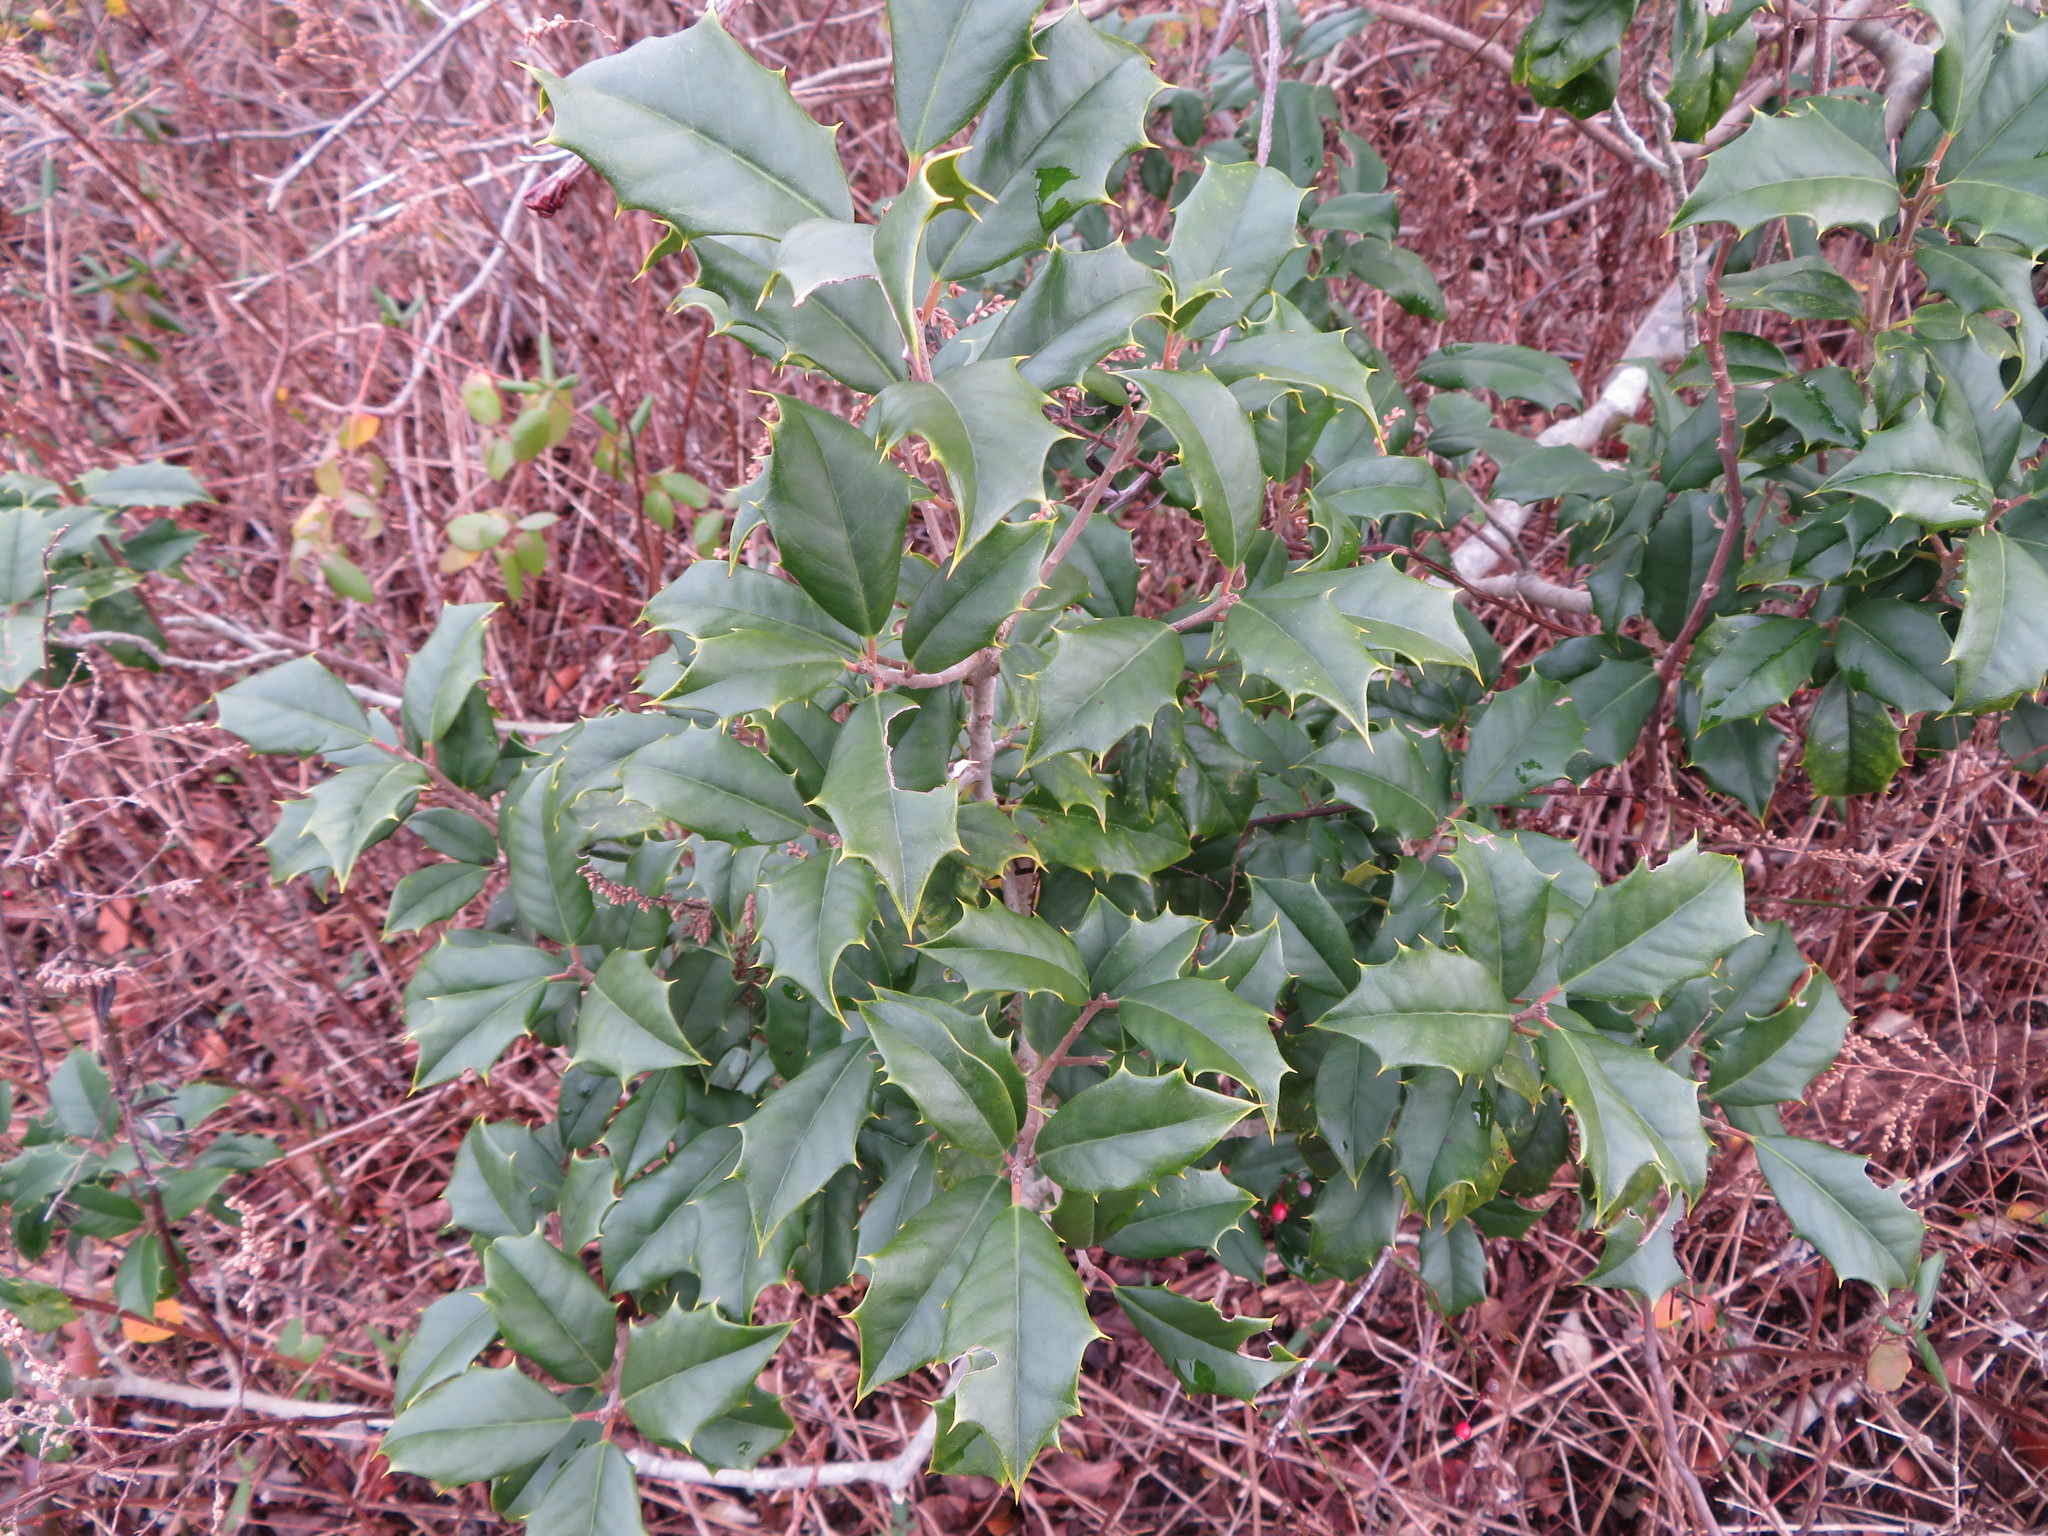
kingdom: Plantae
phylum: Tracheophyta
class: Magnoliopsida
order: Aquifoliales
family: Aquifoliaceae
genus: Ilex
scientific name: Ilex opaca
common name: American holly
